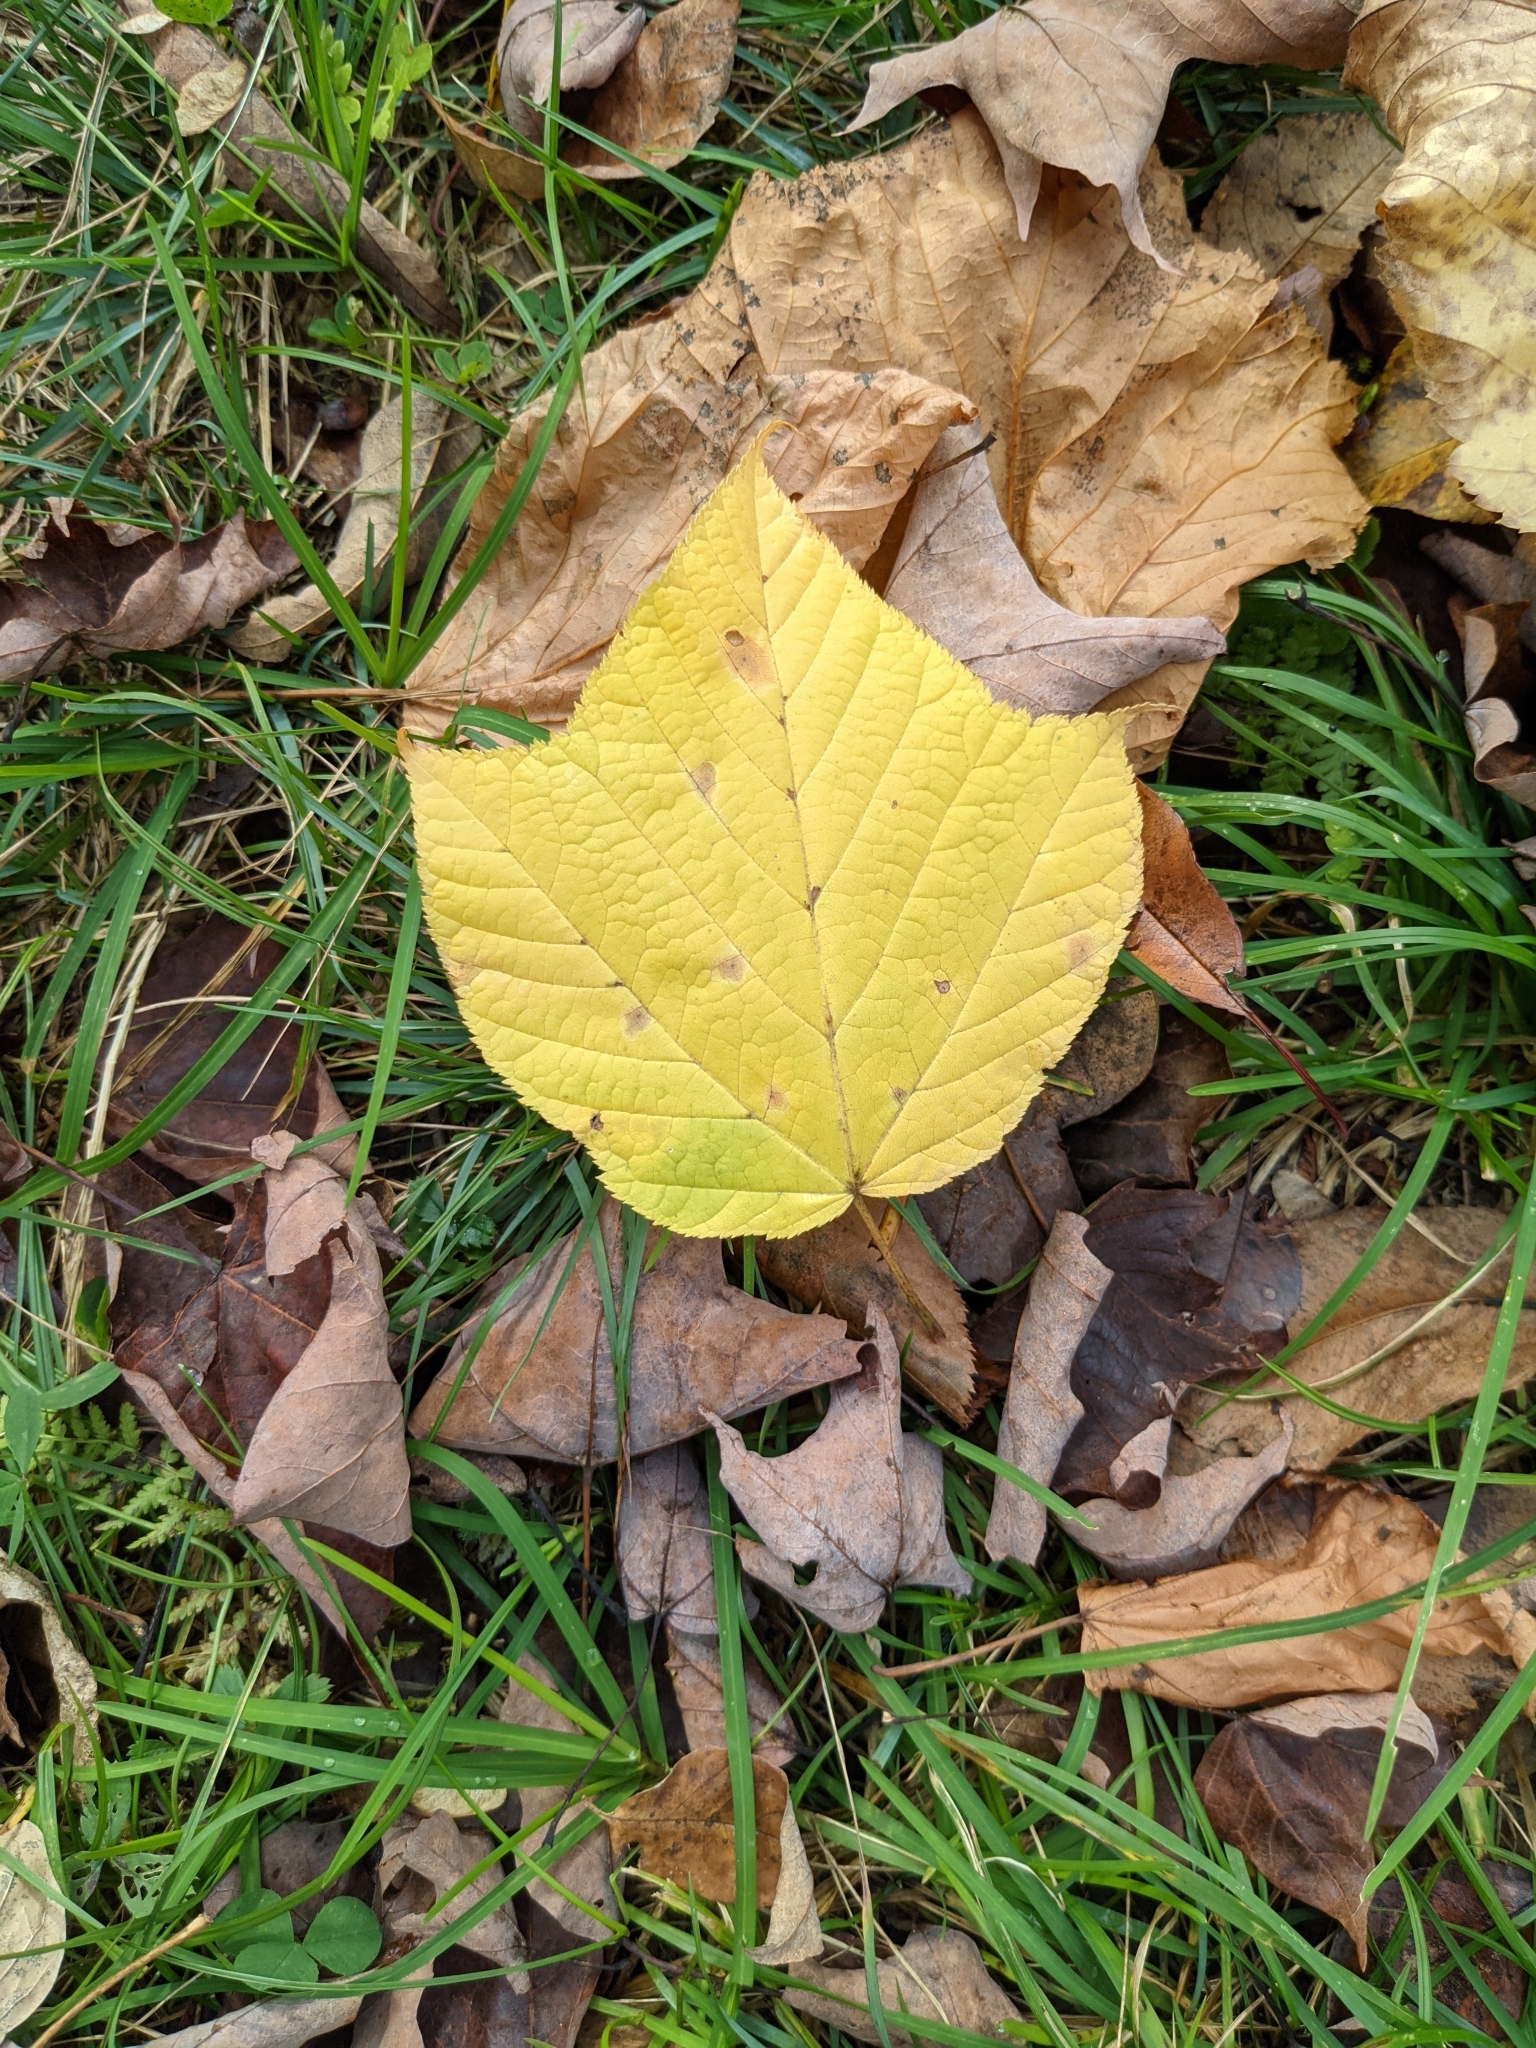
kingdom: Plantae
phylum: Tracheophyta
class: Magnoliopsida
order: Sapindales
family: Sapindaceae
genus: Acer
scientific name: Acer pensylvanicum
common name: Moosewood
